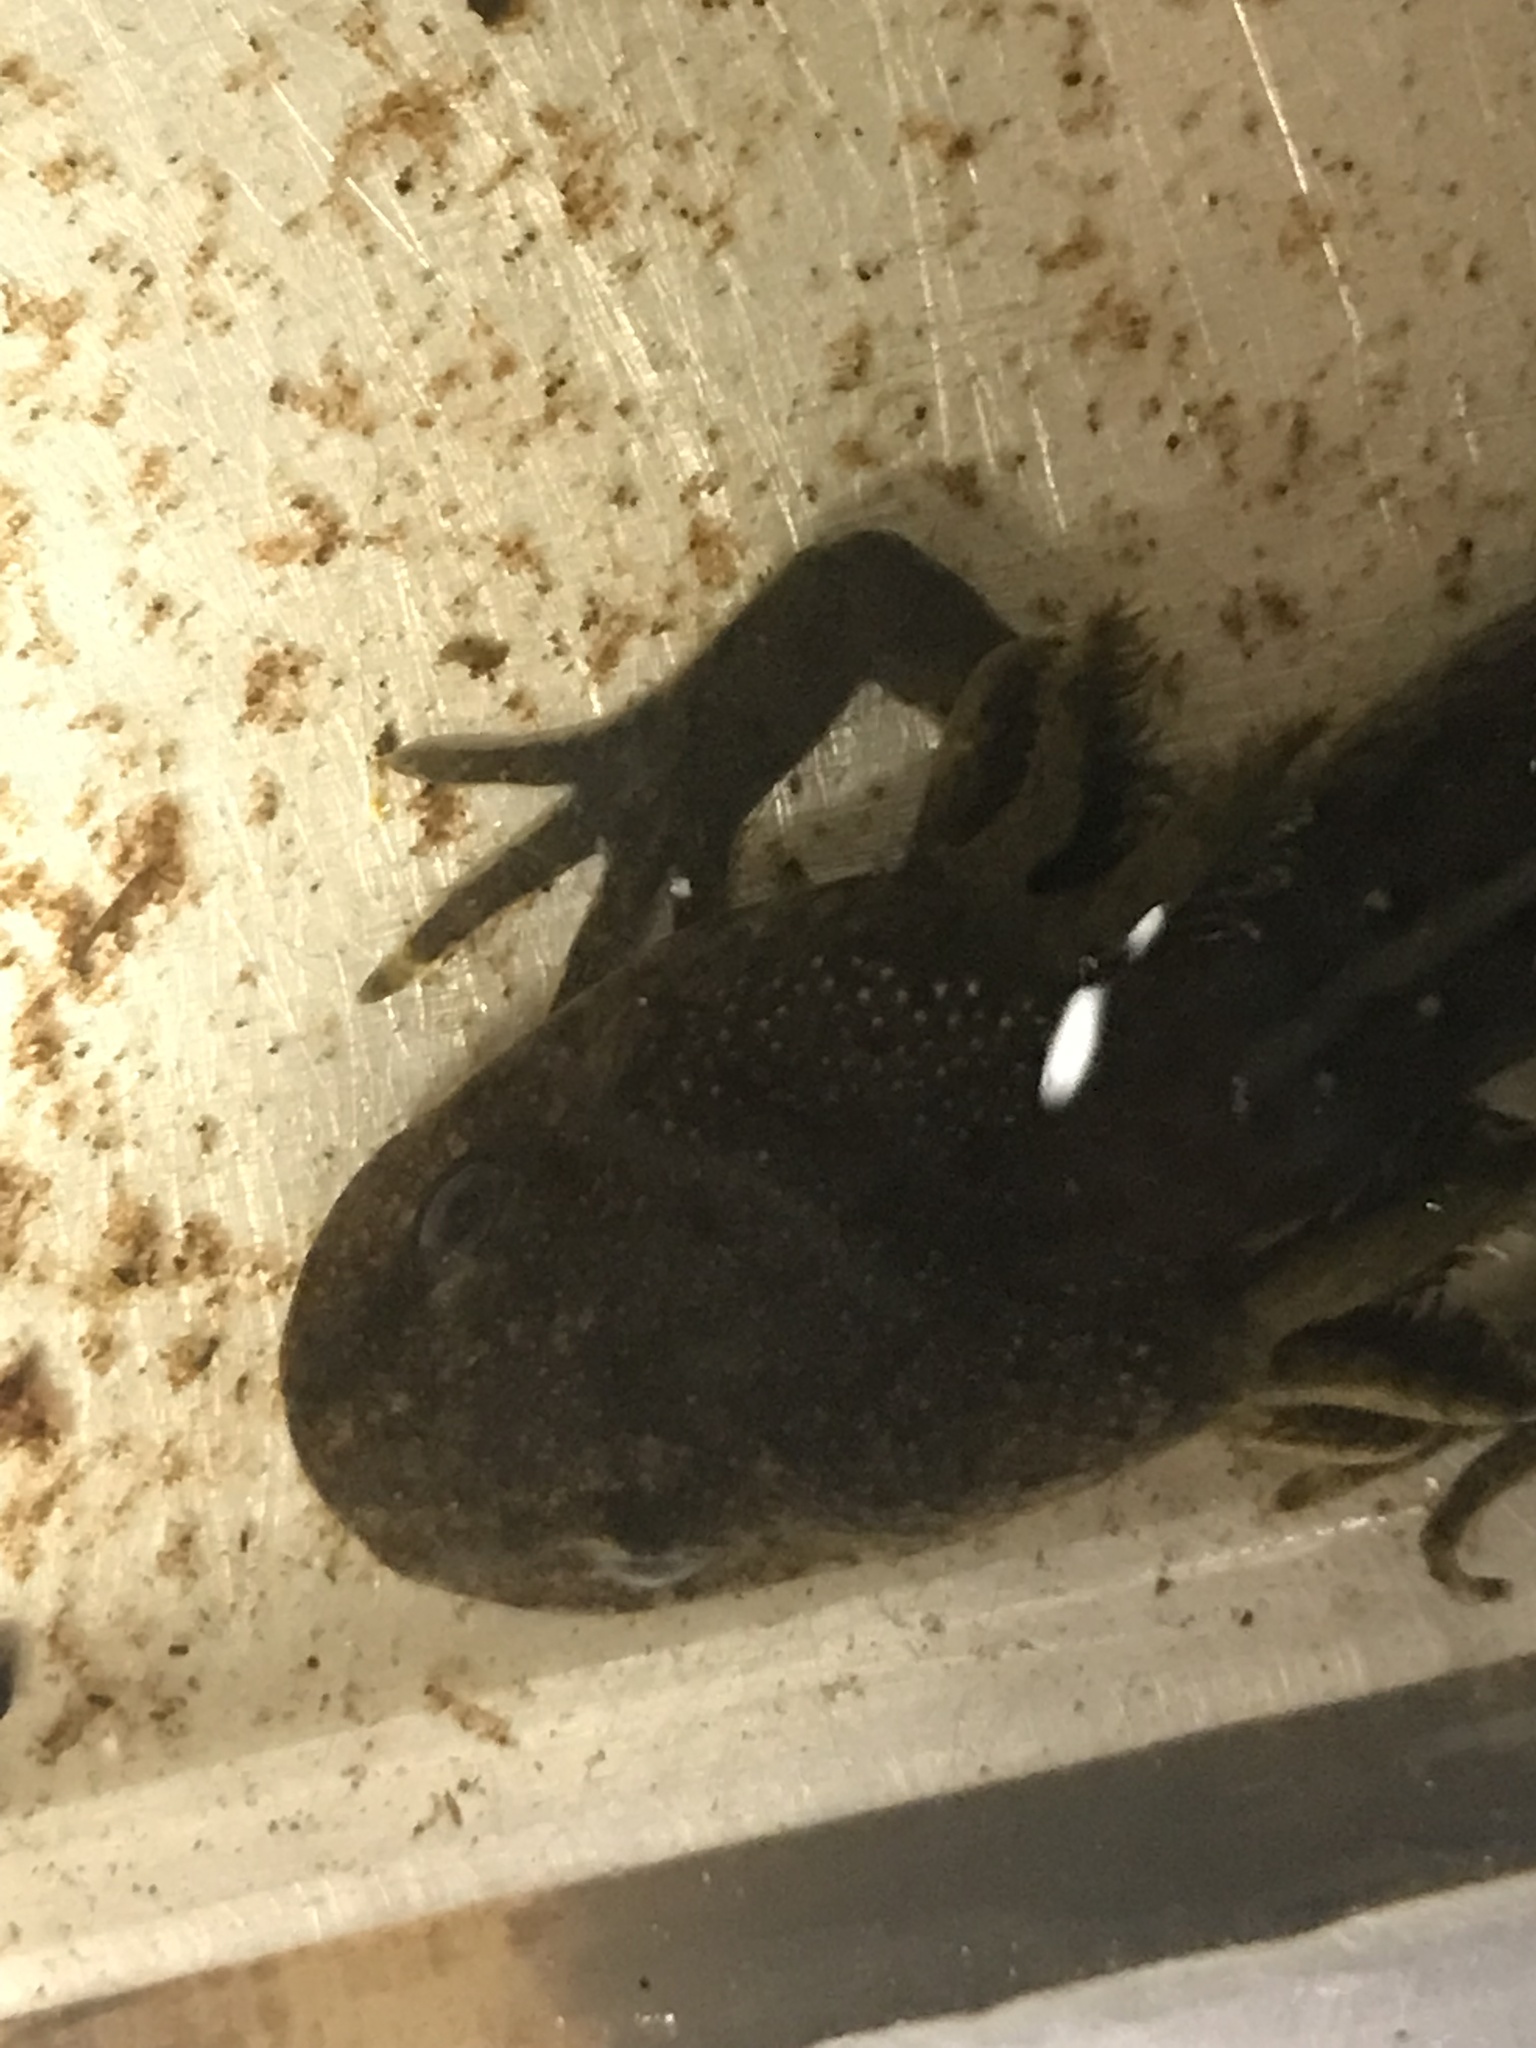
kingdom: Animalia
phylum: Chordata
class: Amphibia
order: Caudata
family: Ambystomatidae
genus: Ambystoma
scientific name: Ambystoma gracile
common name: Northwestern salamander
